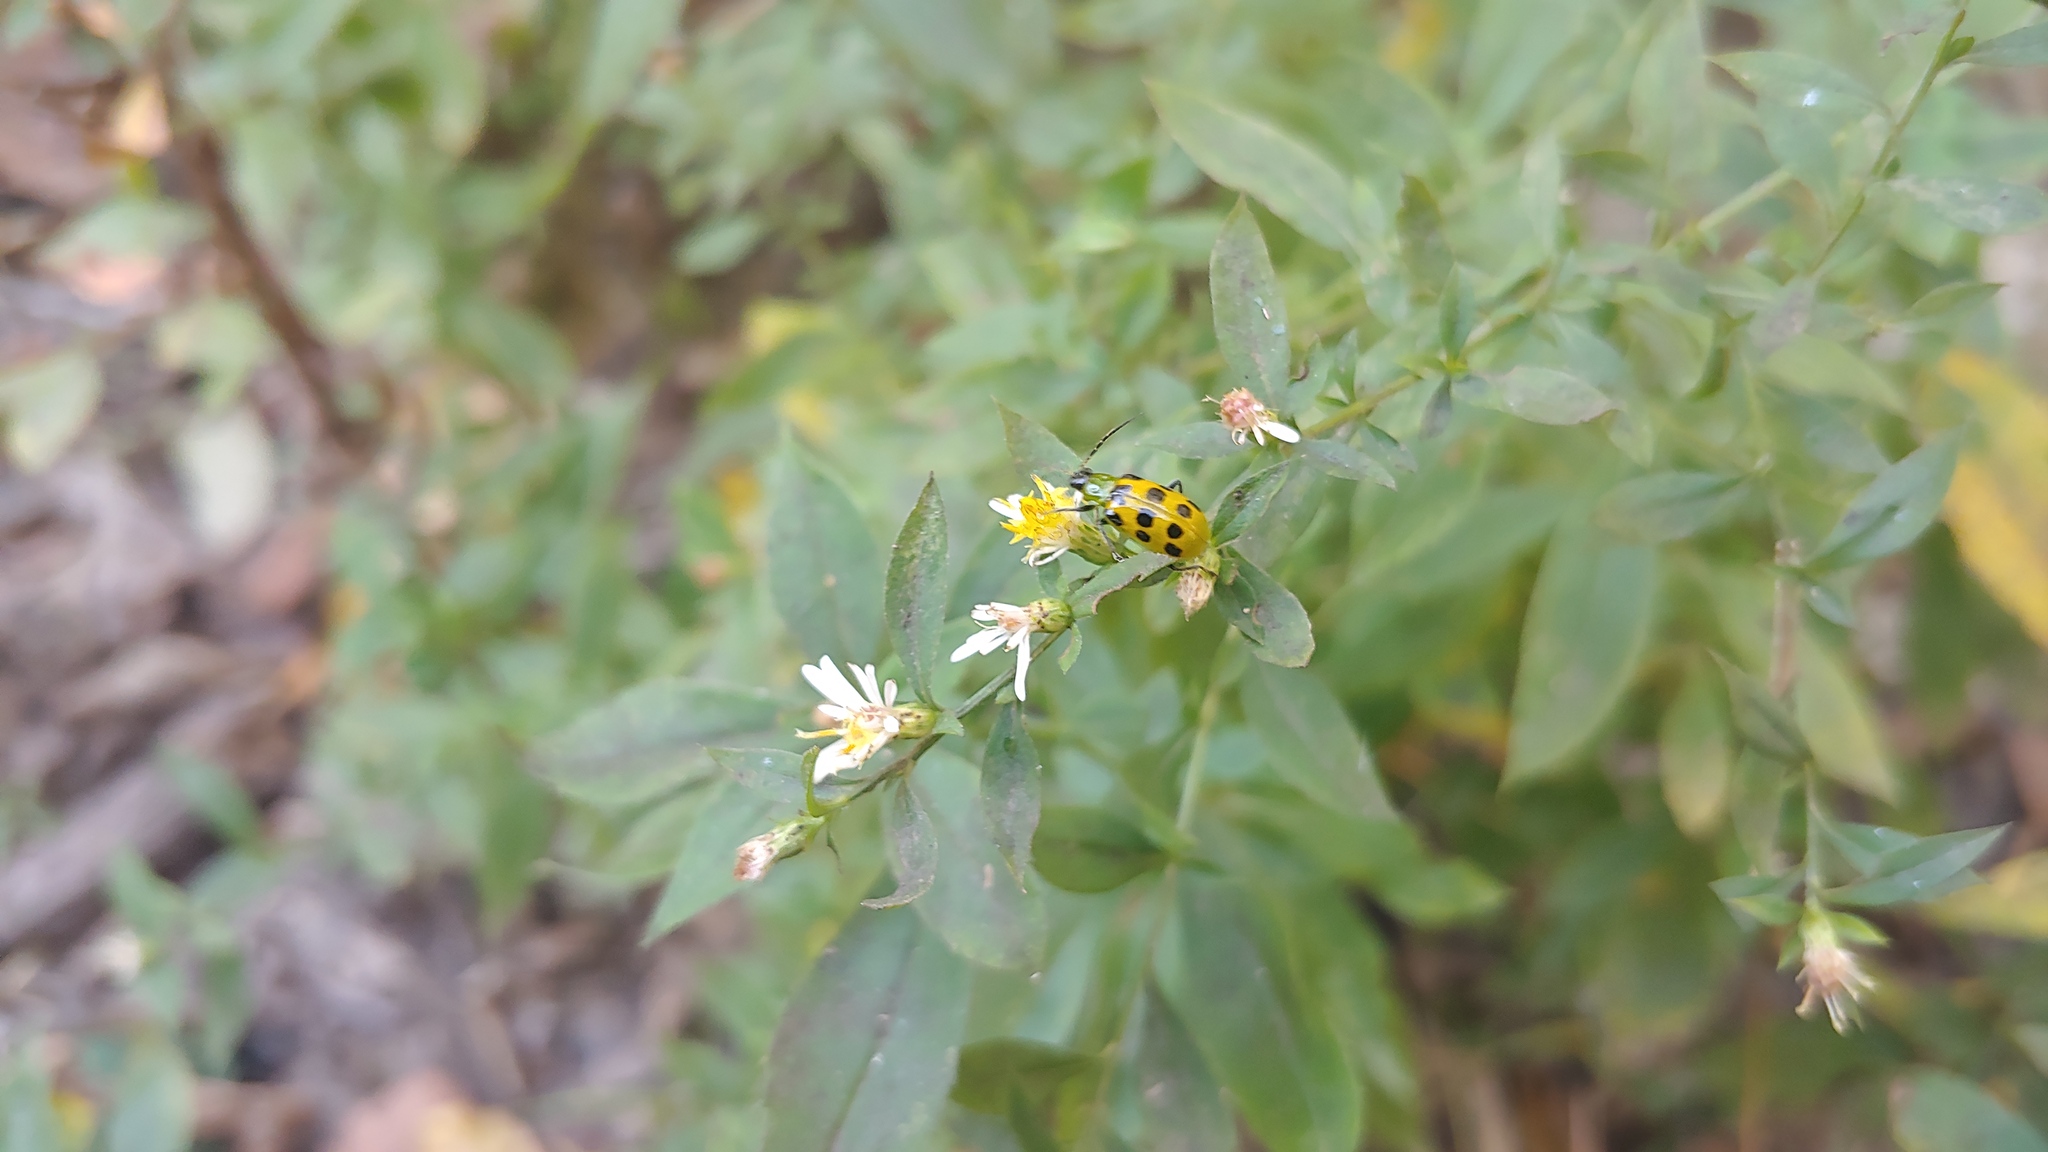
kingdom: Animalia
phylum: Arthropoda
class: Insecta
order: Coleoptera
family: Chrysomelidae
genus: Diabrotica
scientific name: Diabrotica undecimpunctata
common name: Spotted cucumber beetle
